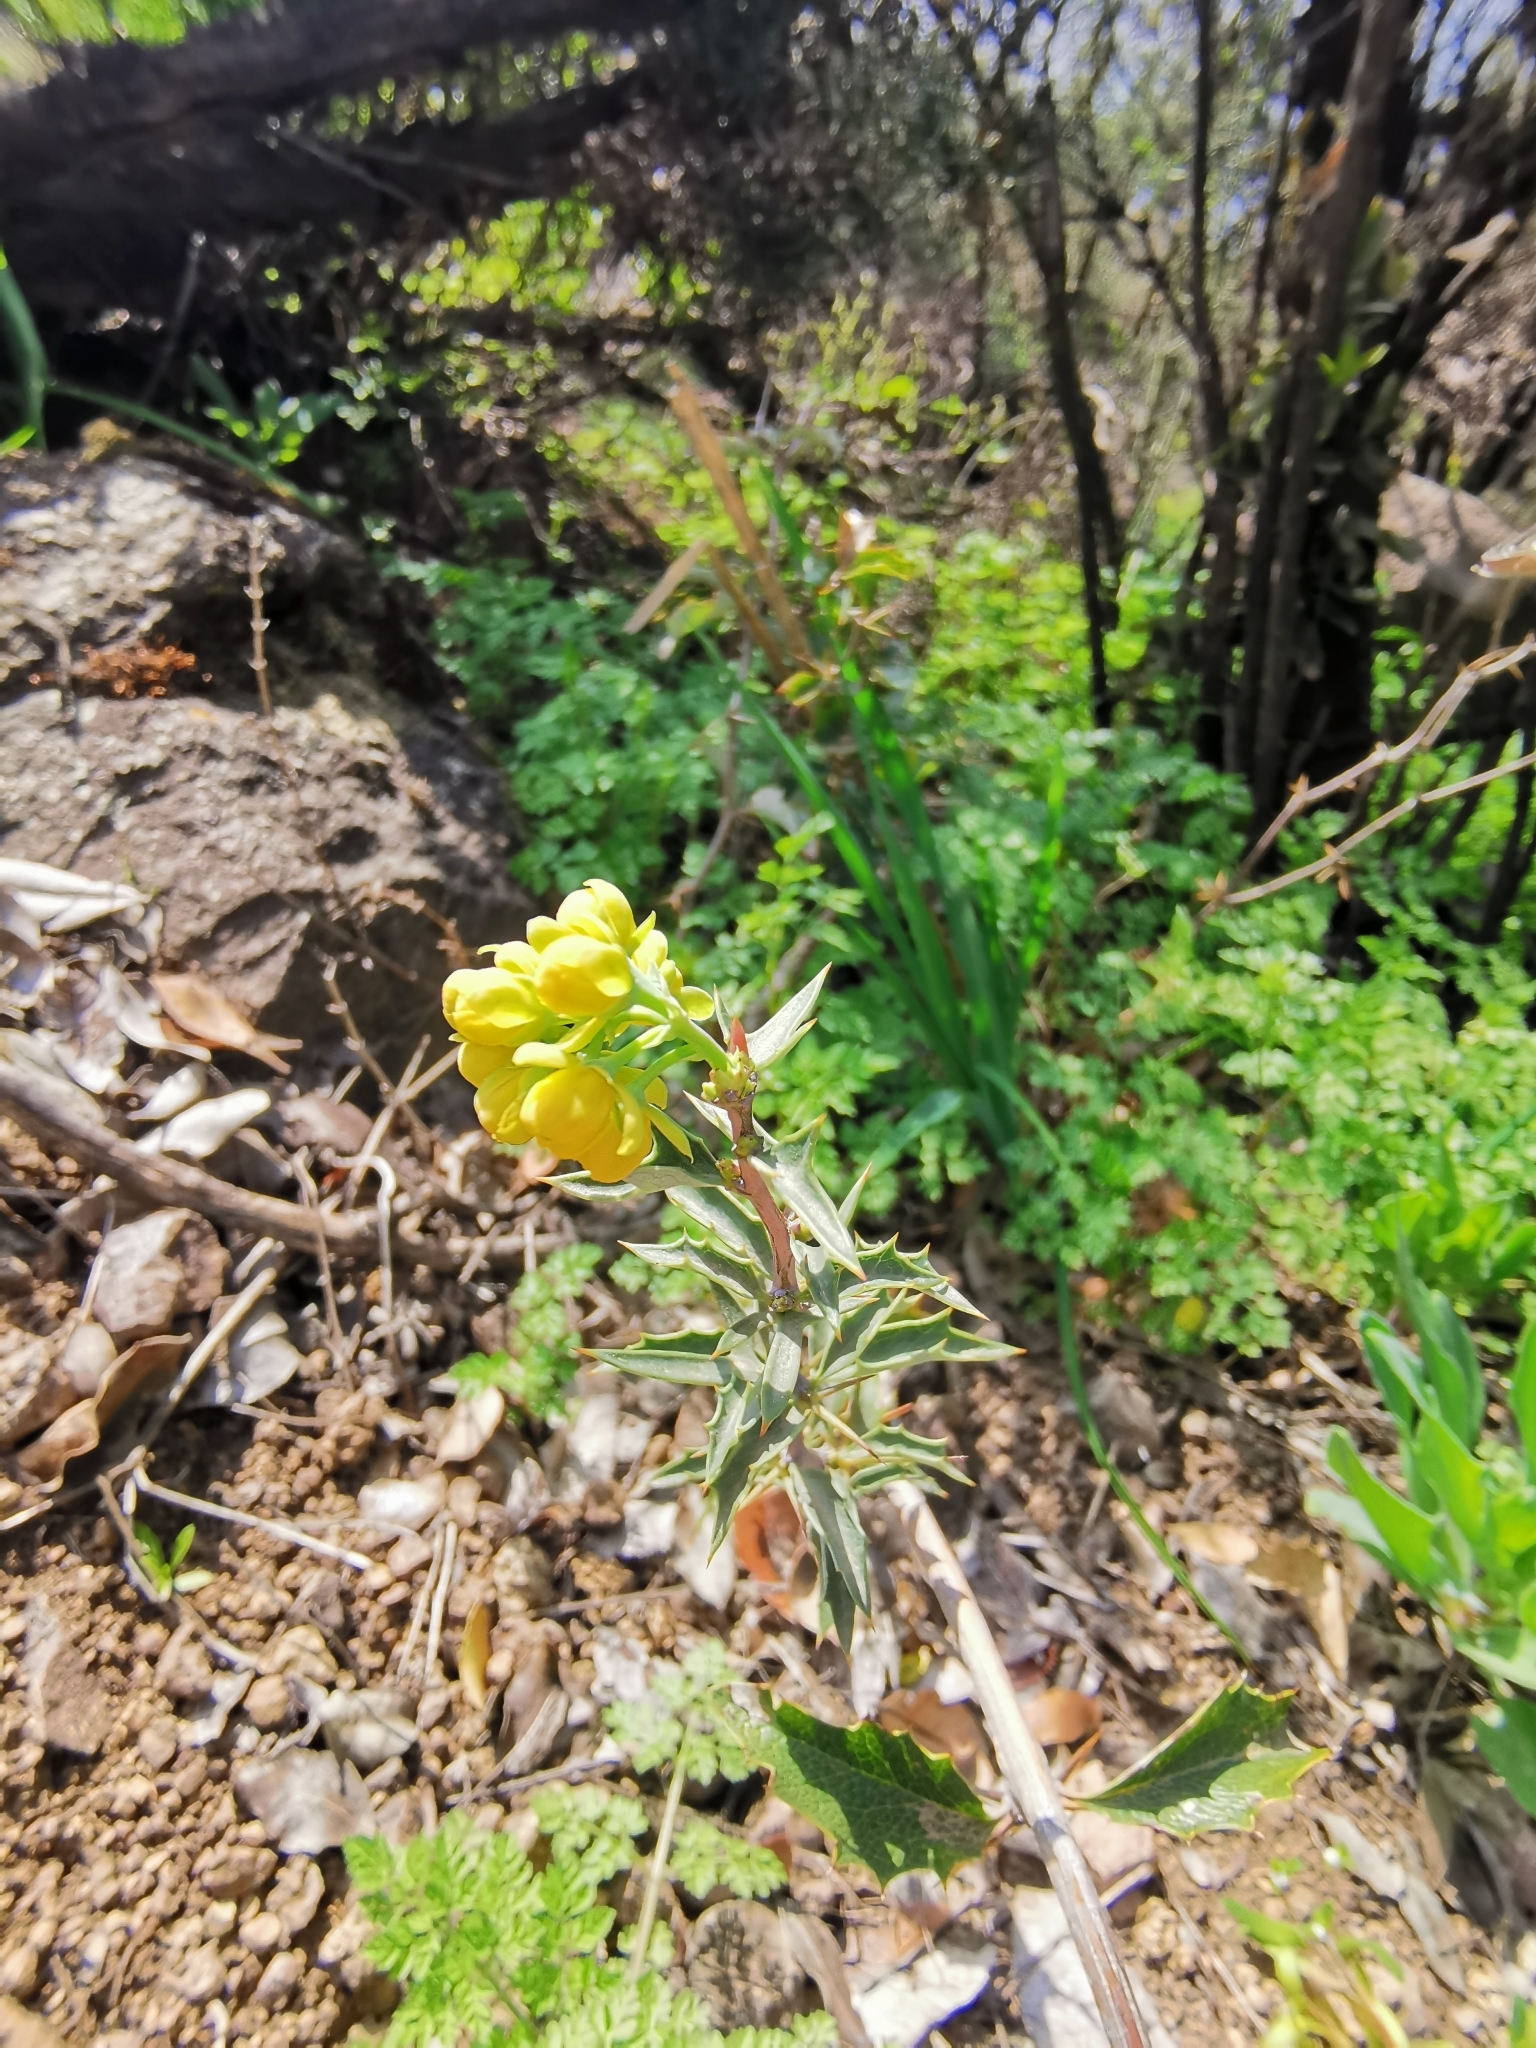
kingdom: Plantae
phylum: Tracheophyta
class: Magnoliopsida
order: Ranunculales
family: Berberidaceae
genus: Berberis
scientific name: Berberis chilensis
